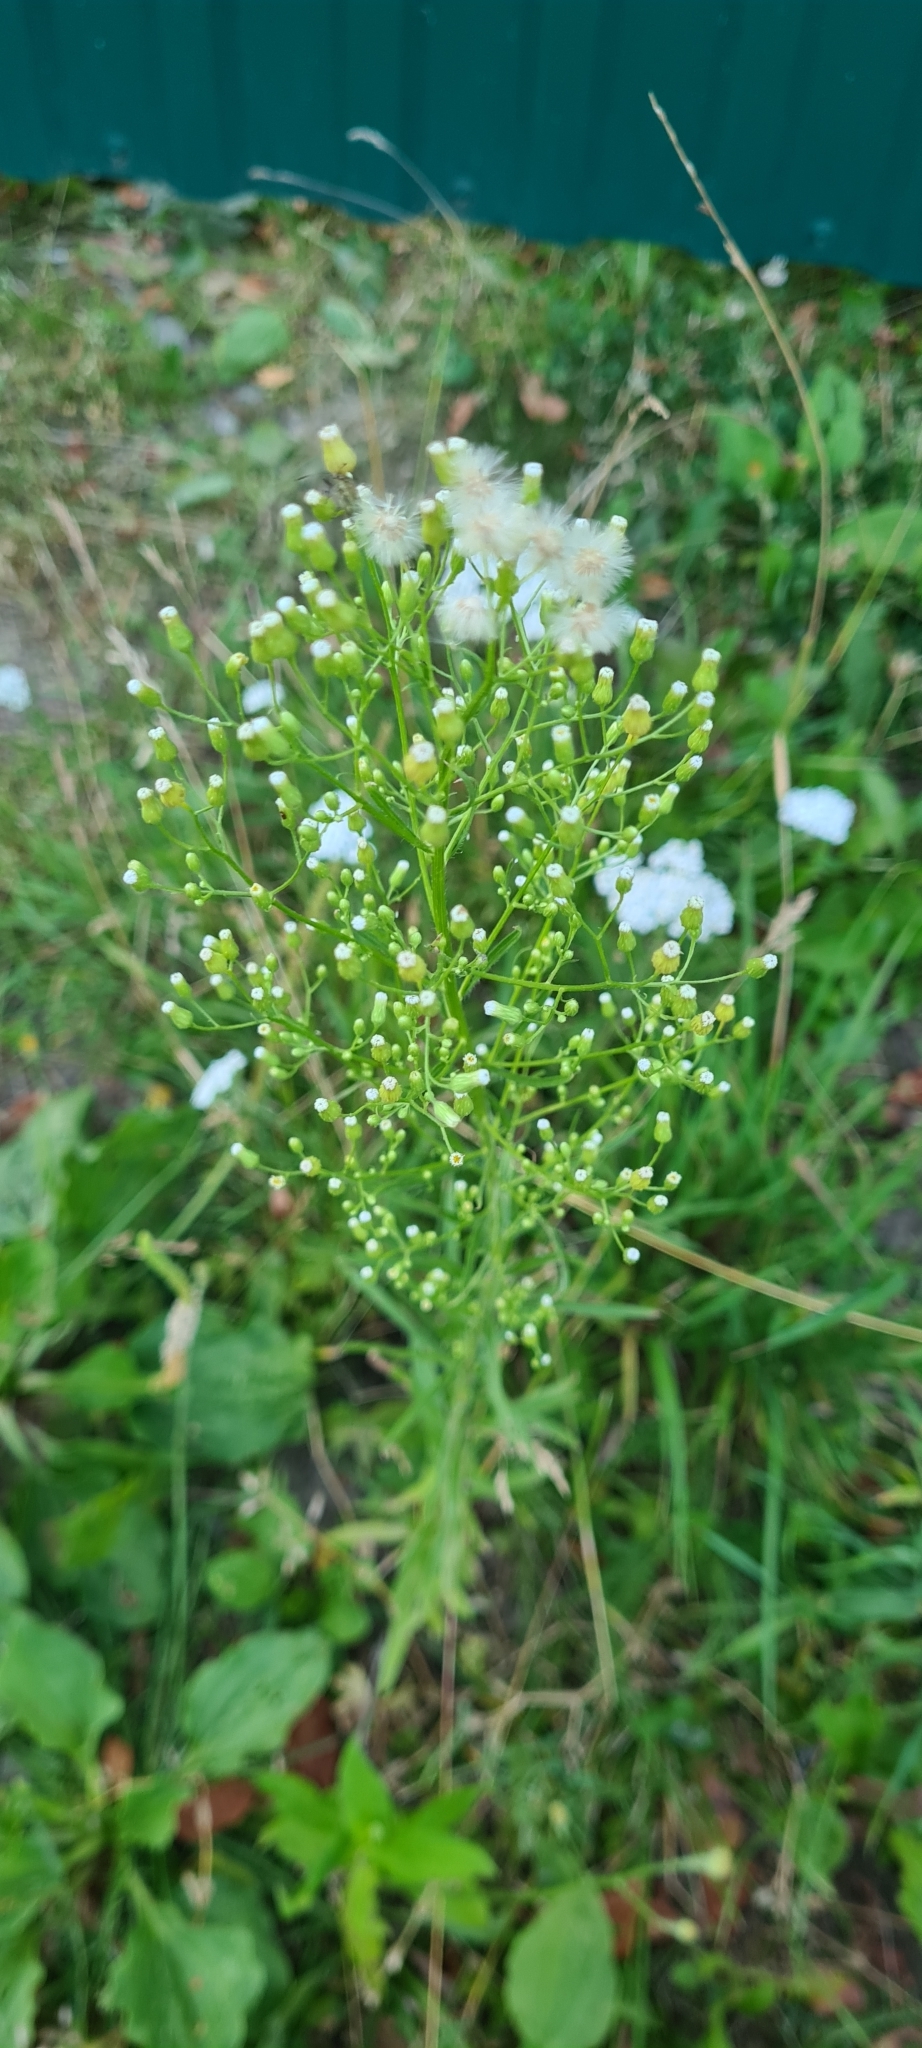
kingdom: Plantae
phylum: Tracheophyta
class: Magnoliopsida
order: Asterales
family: Asteraceae
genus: Erigeron
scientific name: Erigeron canadensis
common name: Canadian fleabane
